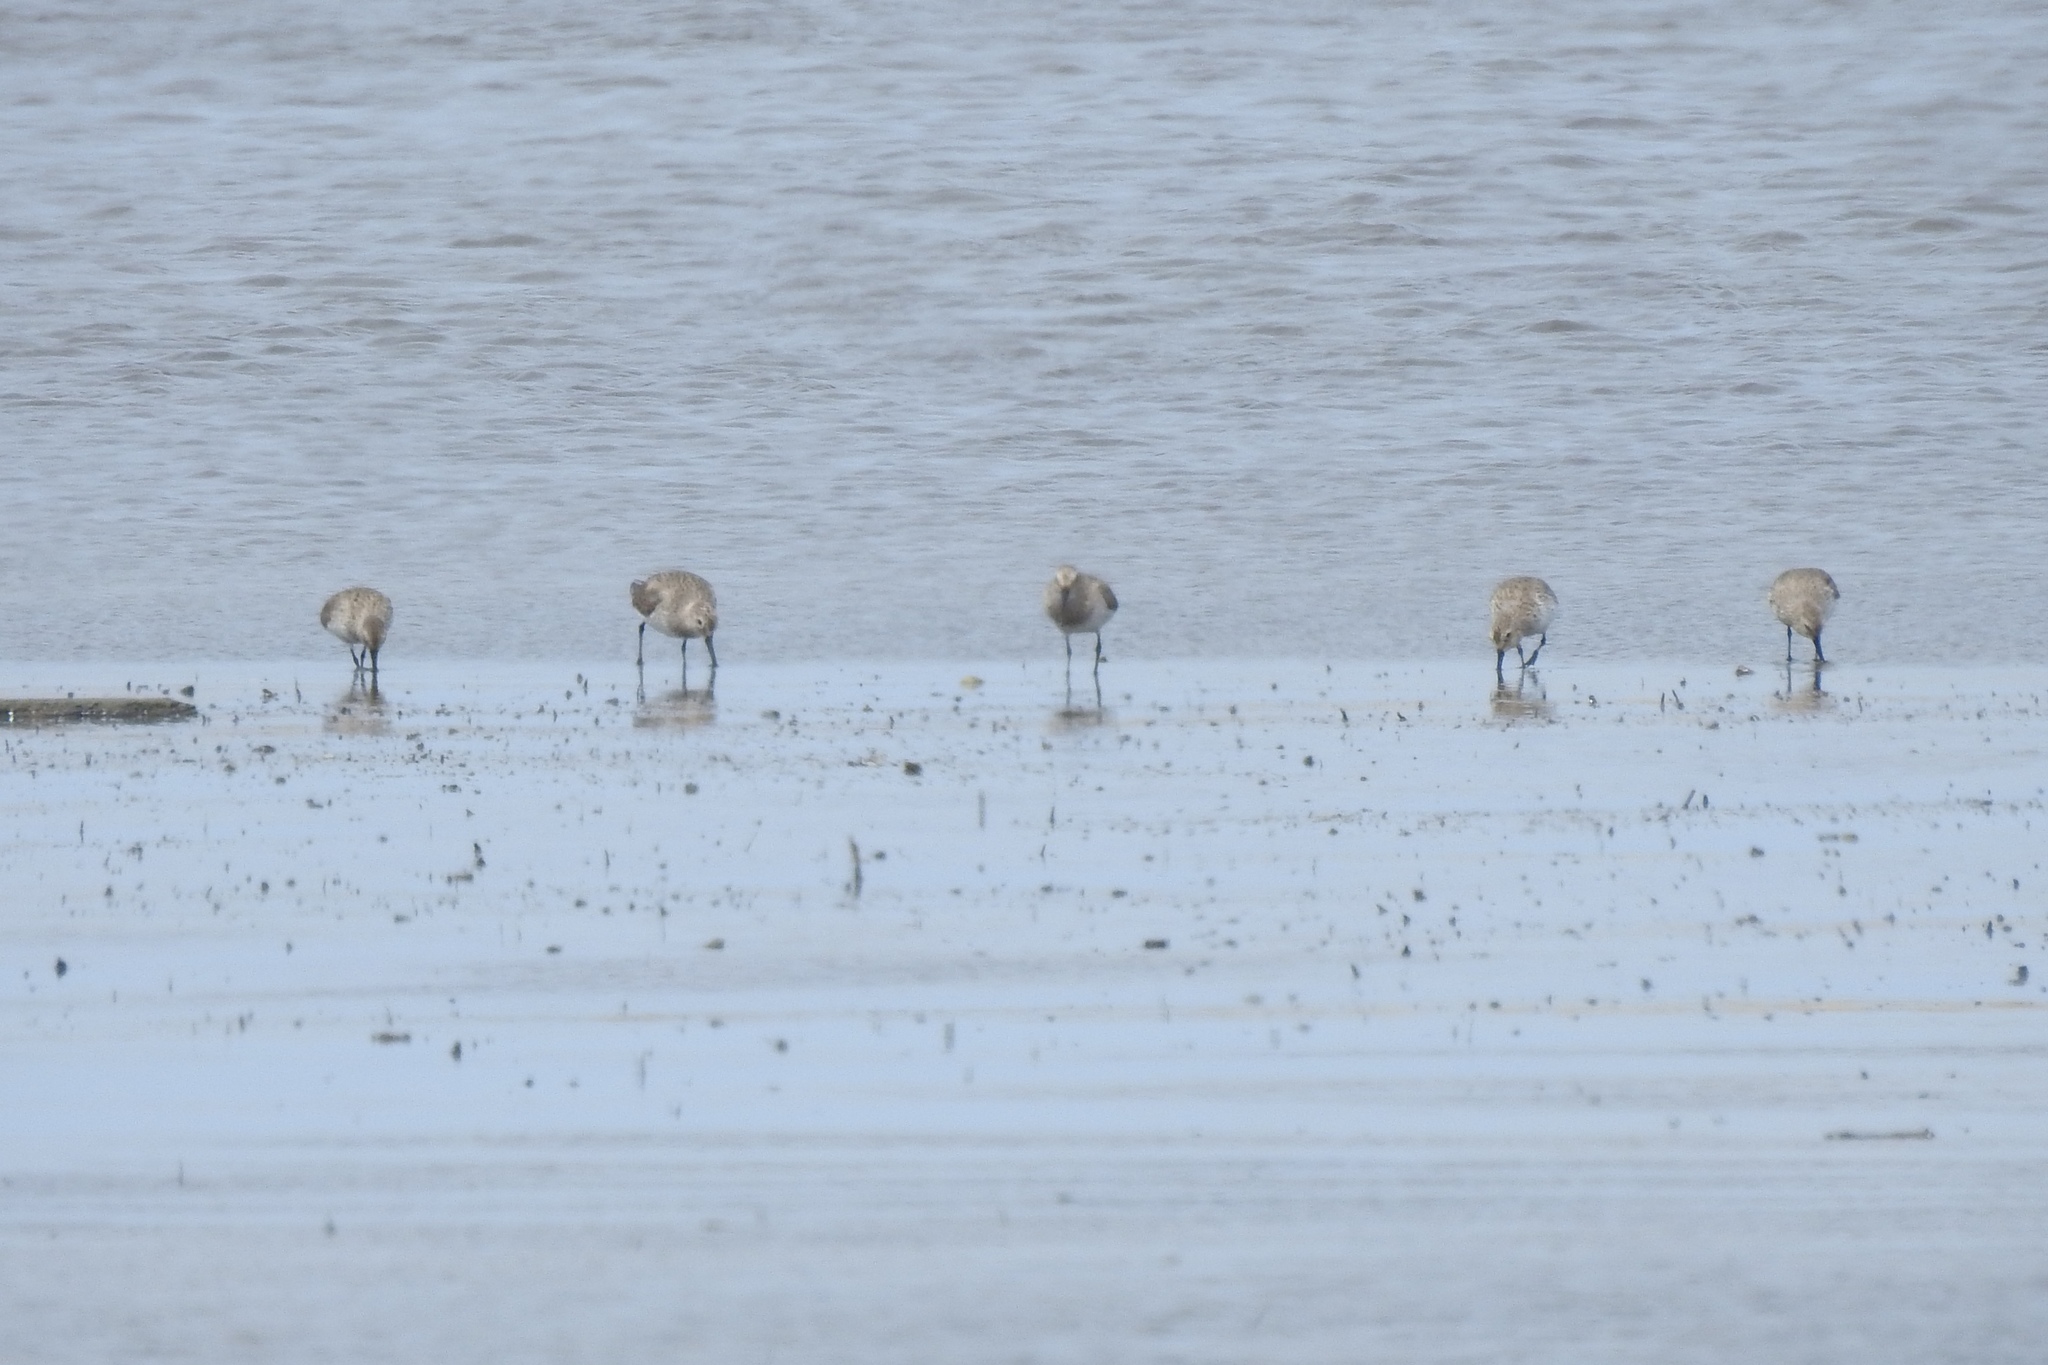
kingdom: Animalia
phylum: Chordata
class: Aves
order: Charadriiformes
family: Scolopacidae
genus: Calidris
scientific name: Calidris alpina
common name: Dunlin
